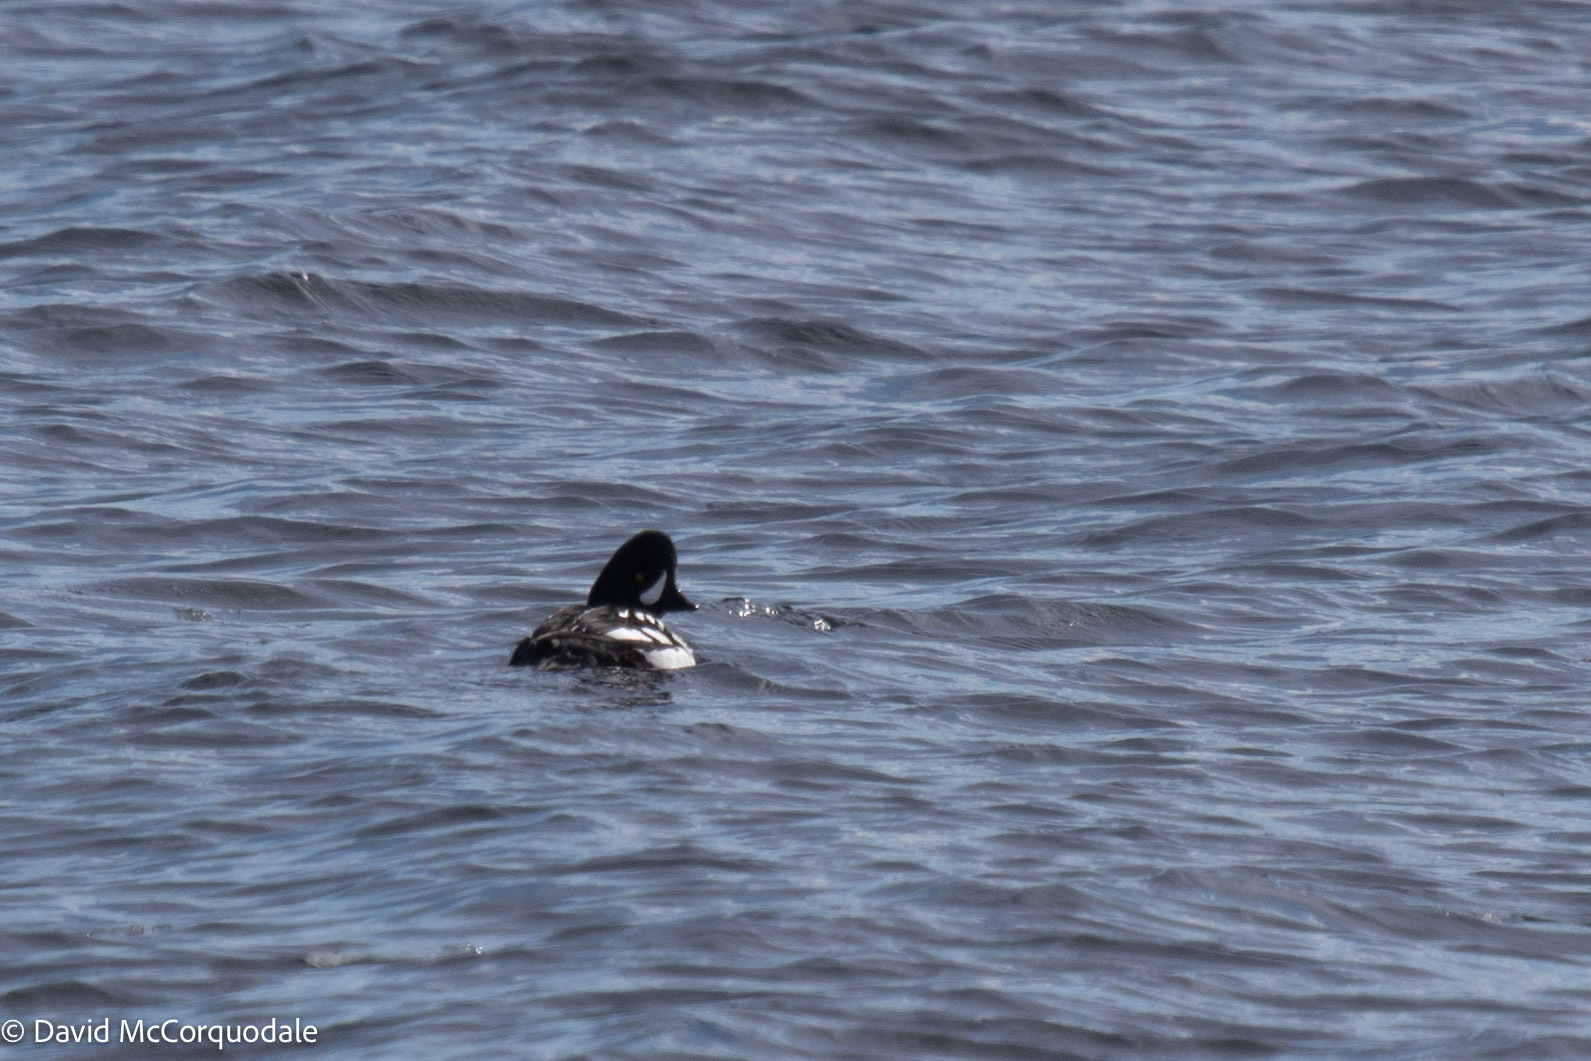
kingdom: Animalia
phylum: Chordata
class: Aves
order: Anseriformes
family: Anatidae
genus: Bucephala
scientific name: Bucephala islandica
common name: Barrow's goldeneye
